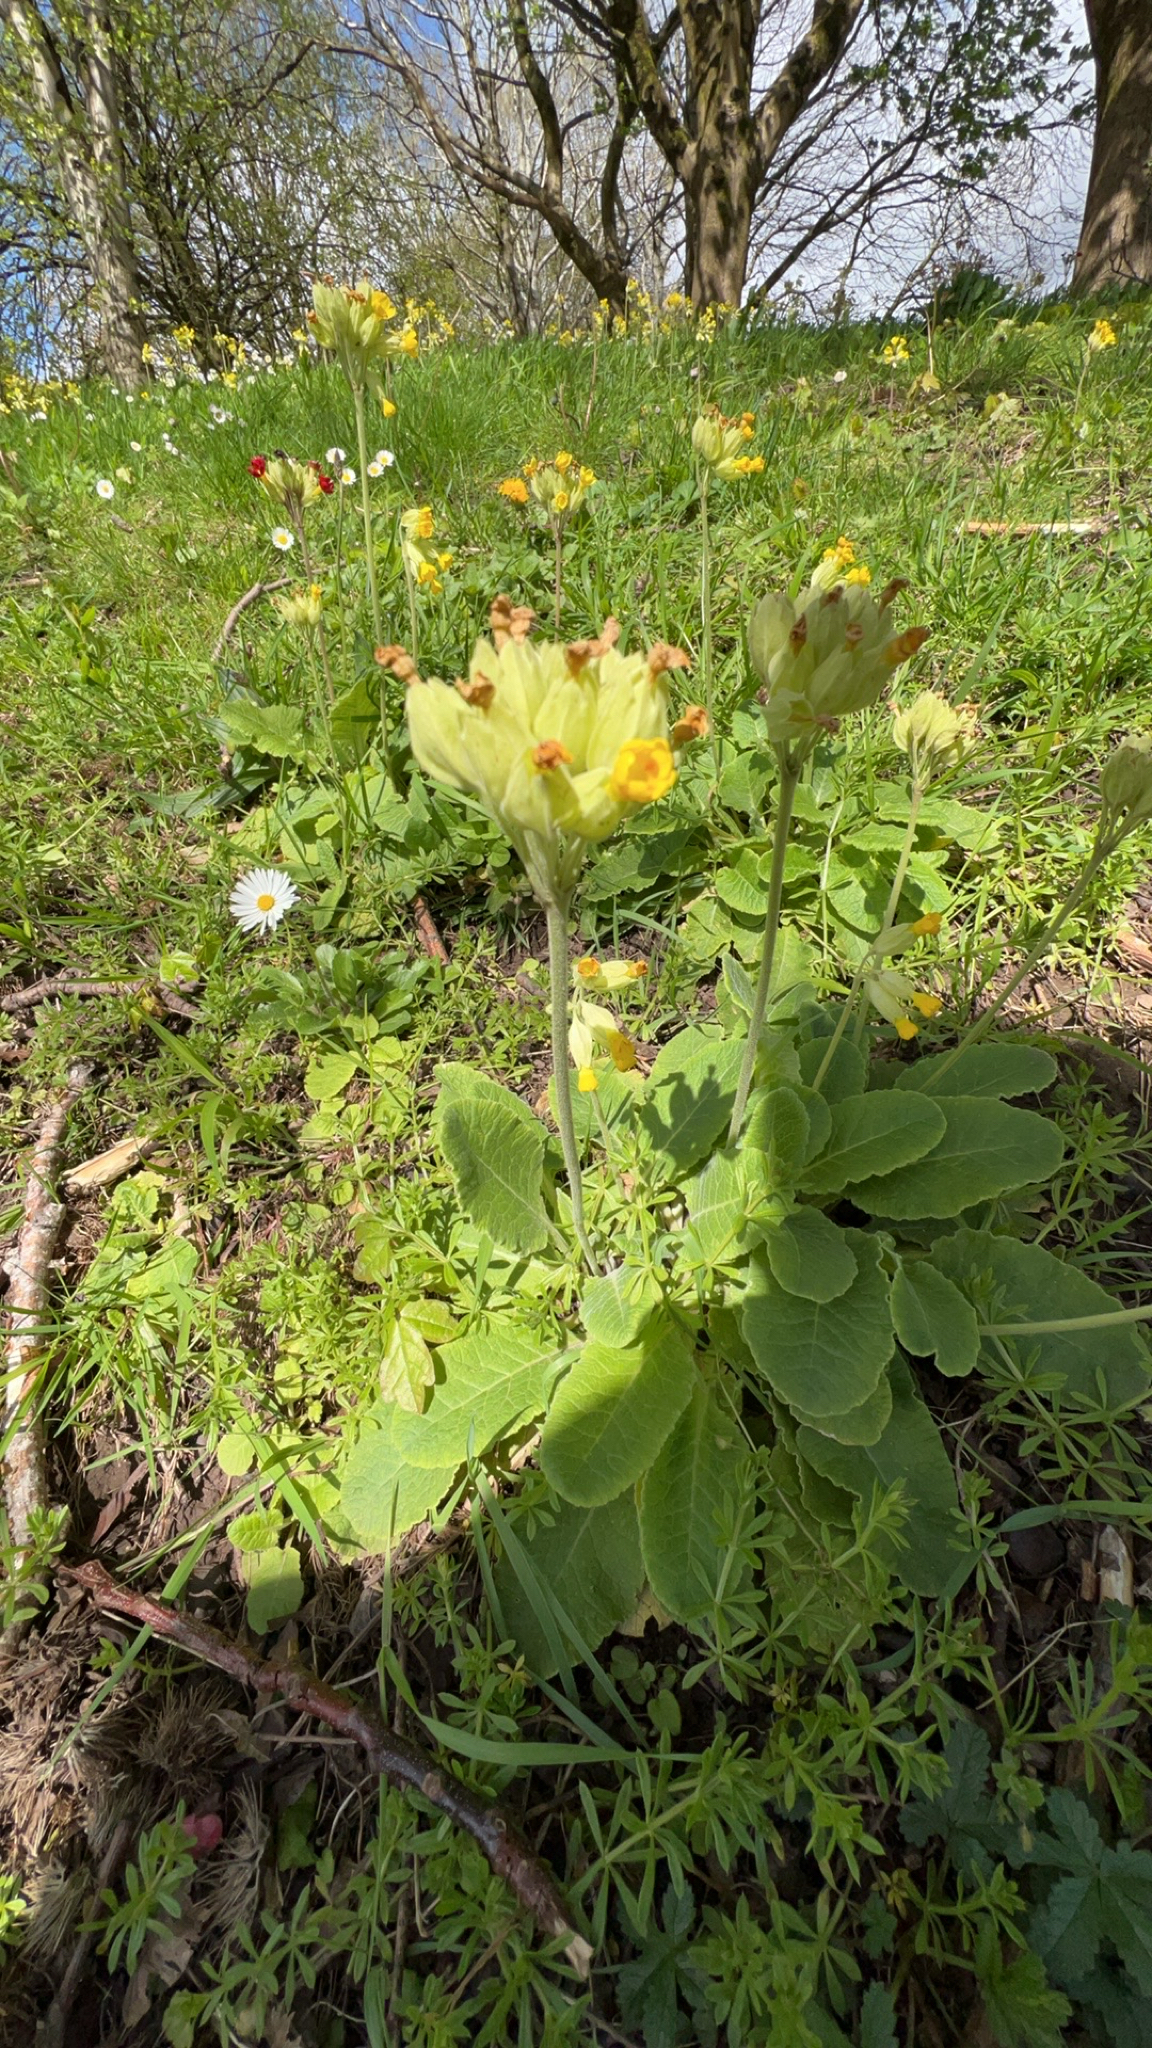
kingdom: Plantae
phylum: Tracheophyta
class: Magnoliopsida
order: Ericales
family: Primulaceae
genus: Primula
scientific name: Primula veris
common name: Cowslip
